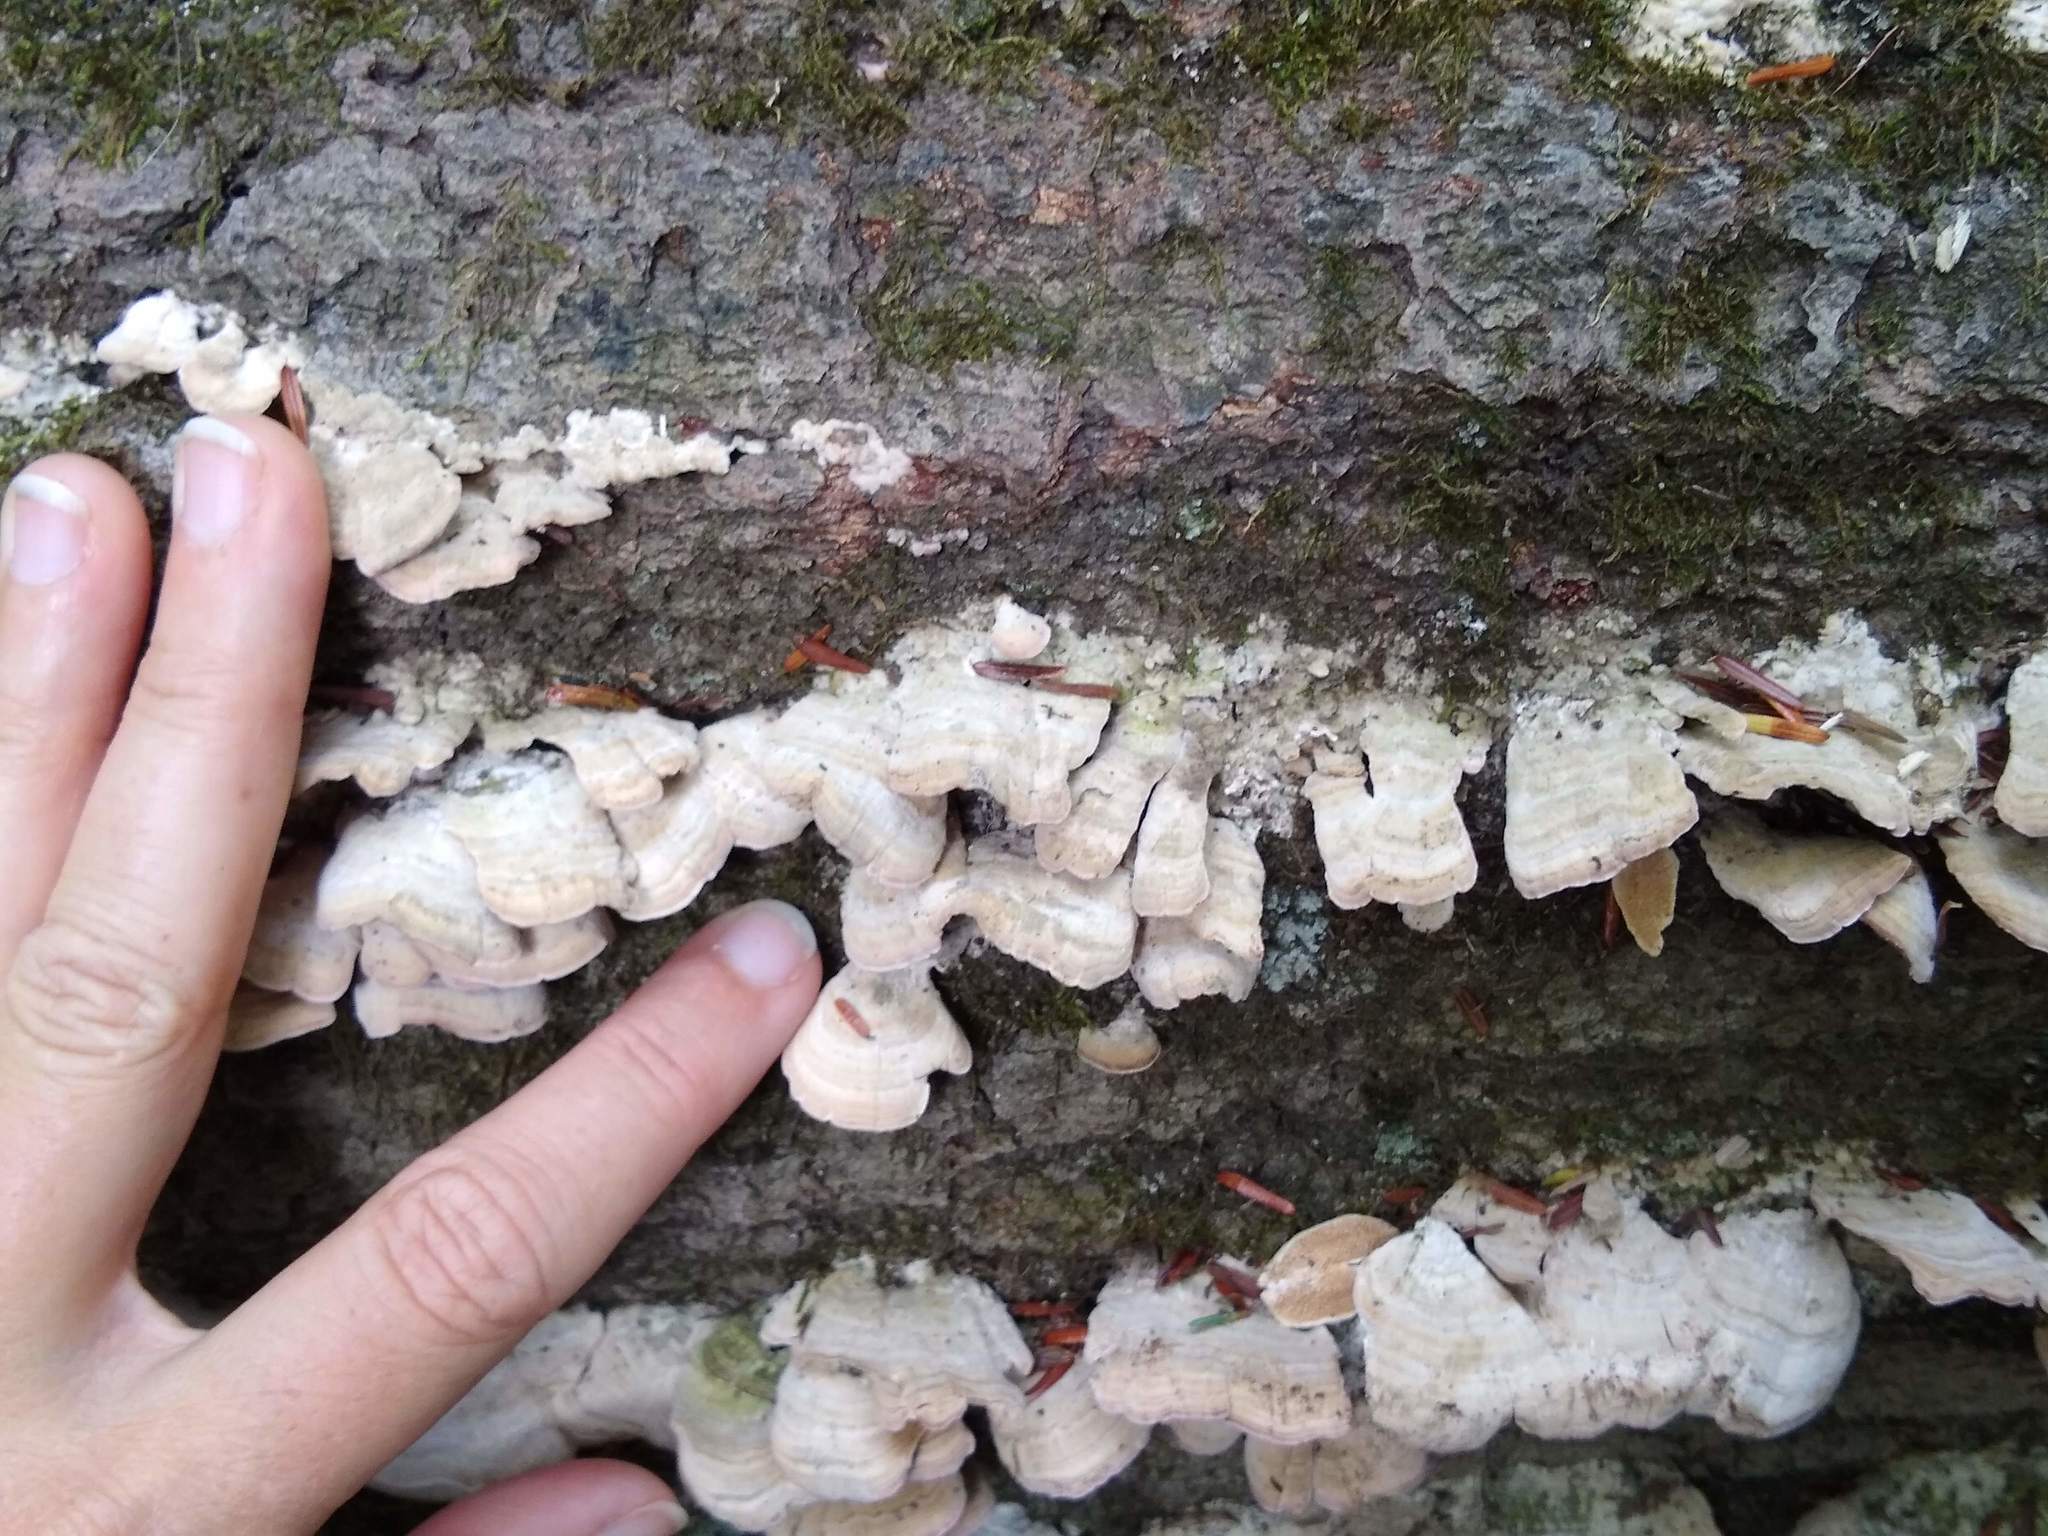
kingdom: Fungi
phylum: Basidiomycota
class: Agaricomycetes
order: Hymenochaetales
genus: Trichaptum
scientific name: Trichaptum biforme
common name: Violet-toothed polypore
